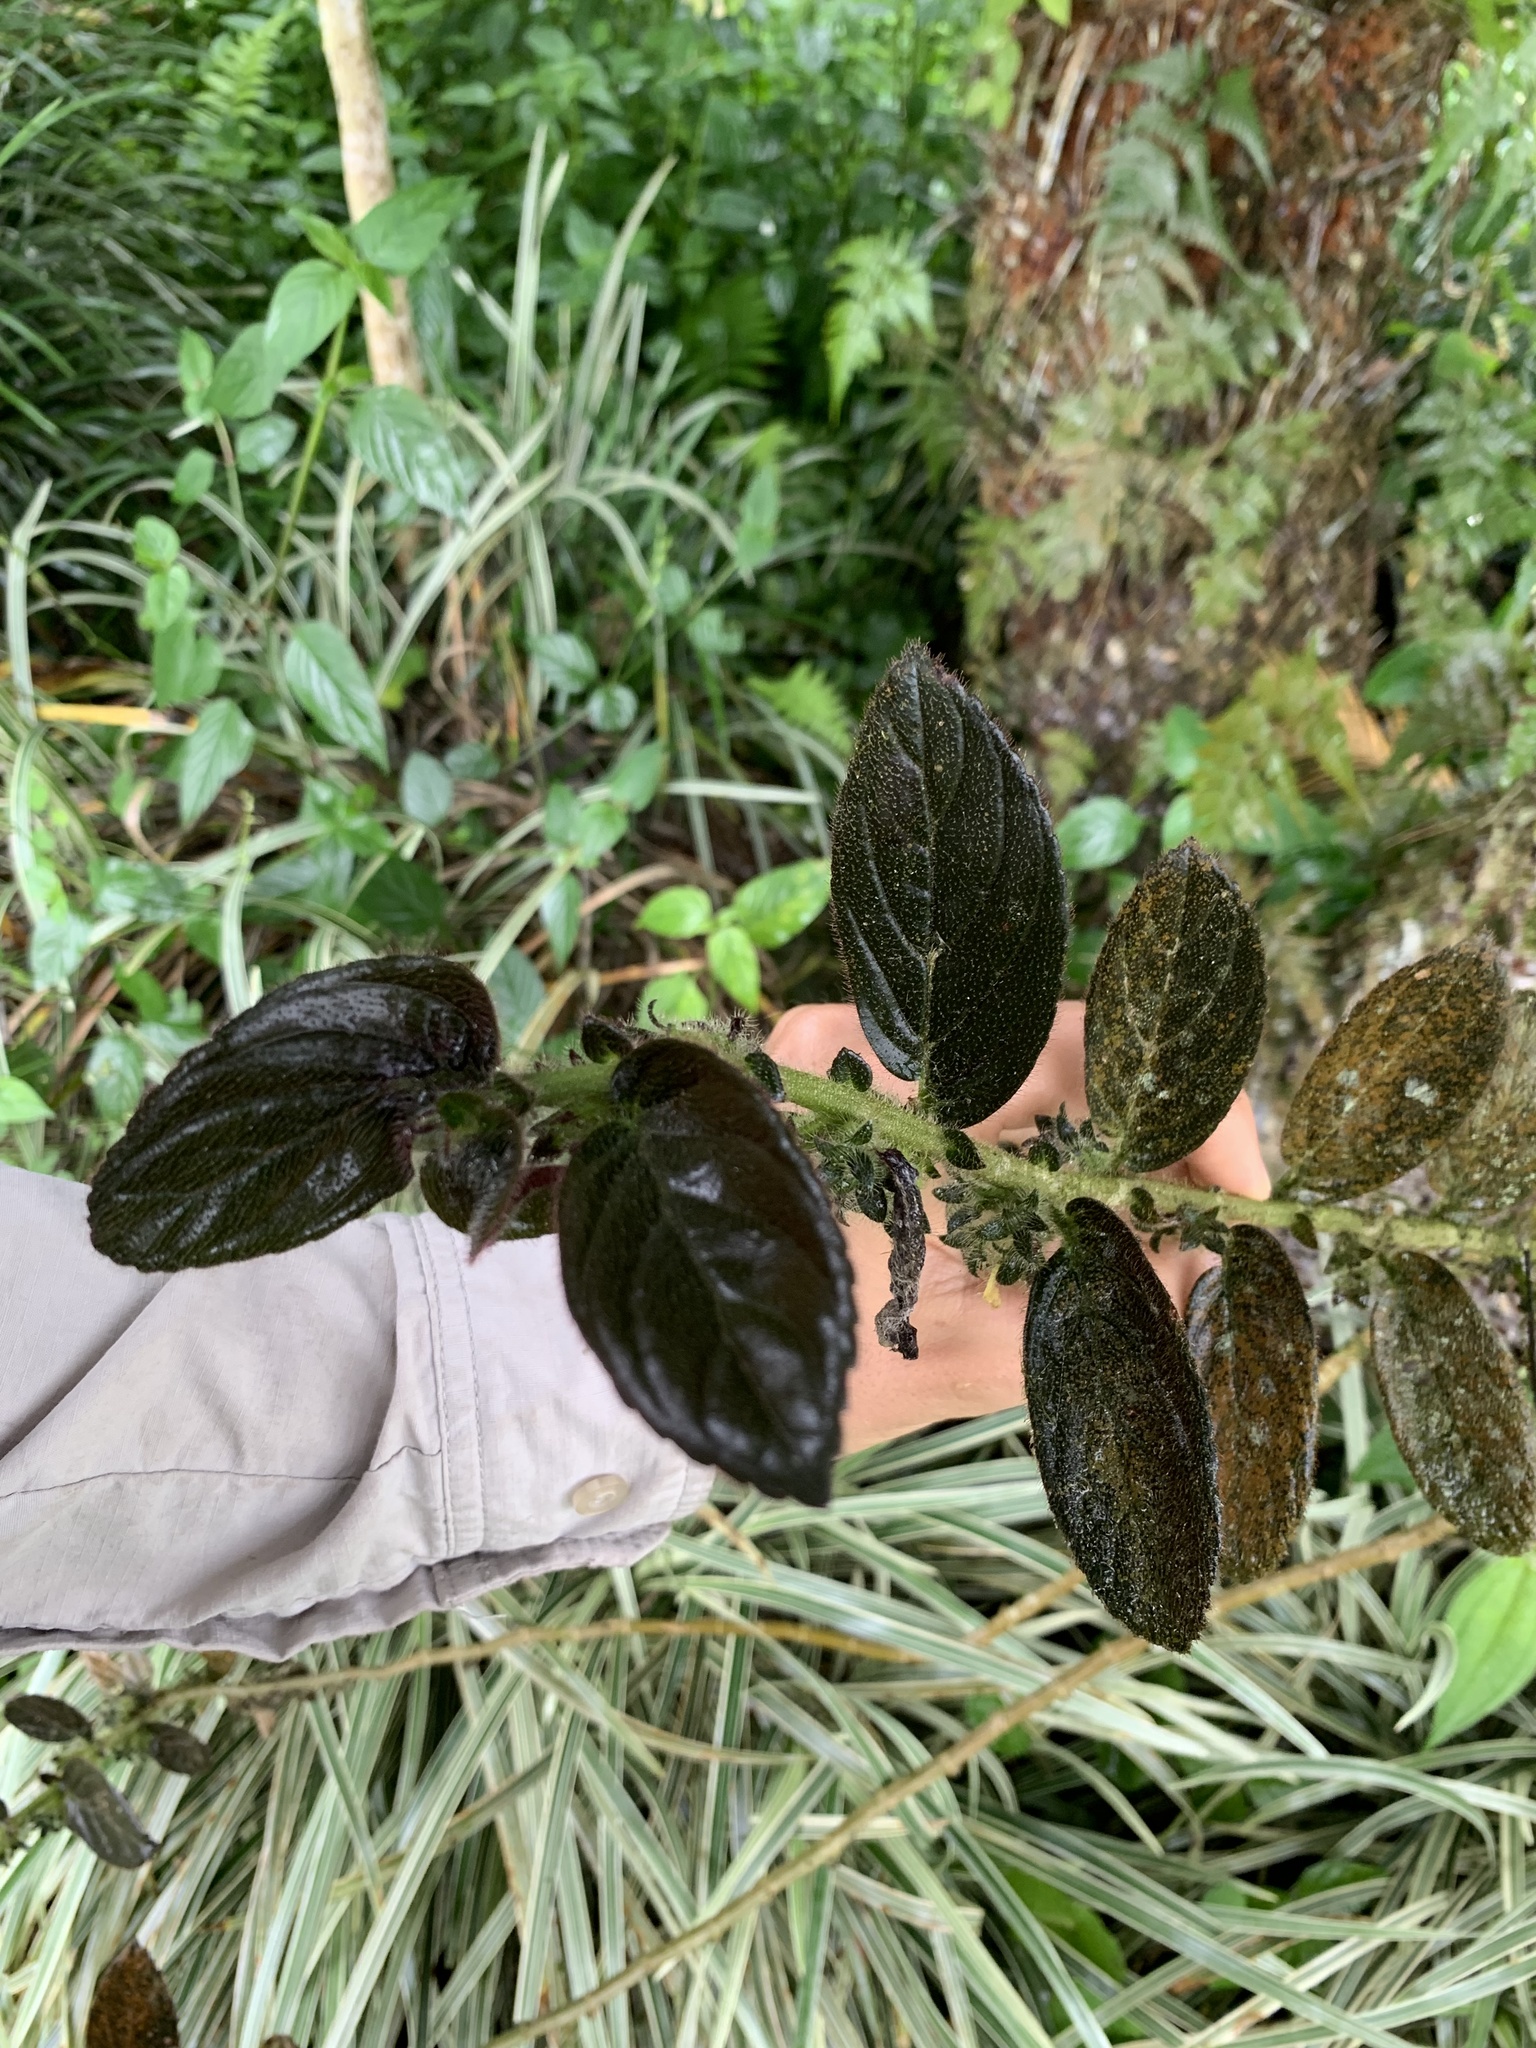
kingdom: Plantae
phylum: Tracheophyta
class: Magnoliopsida
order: Lamiales
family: Gesneriaceae
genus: Columnea
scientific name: Columnea spathulata
